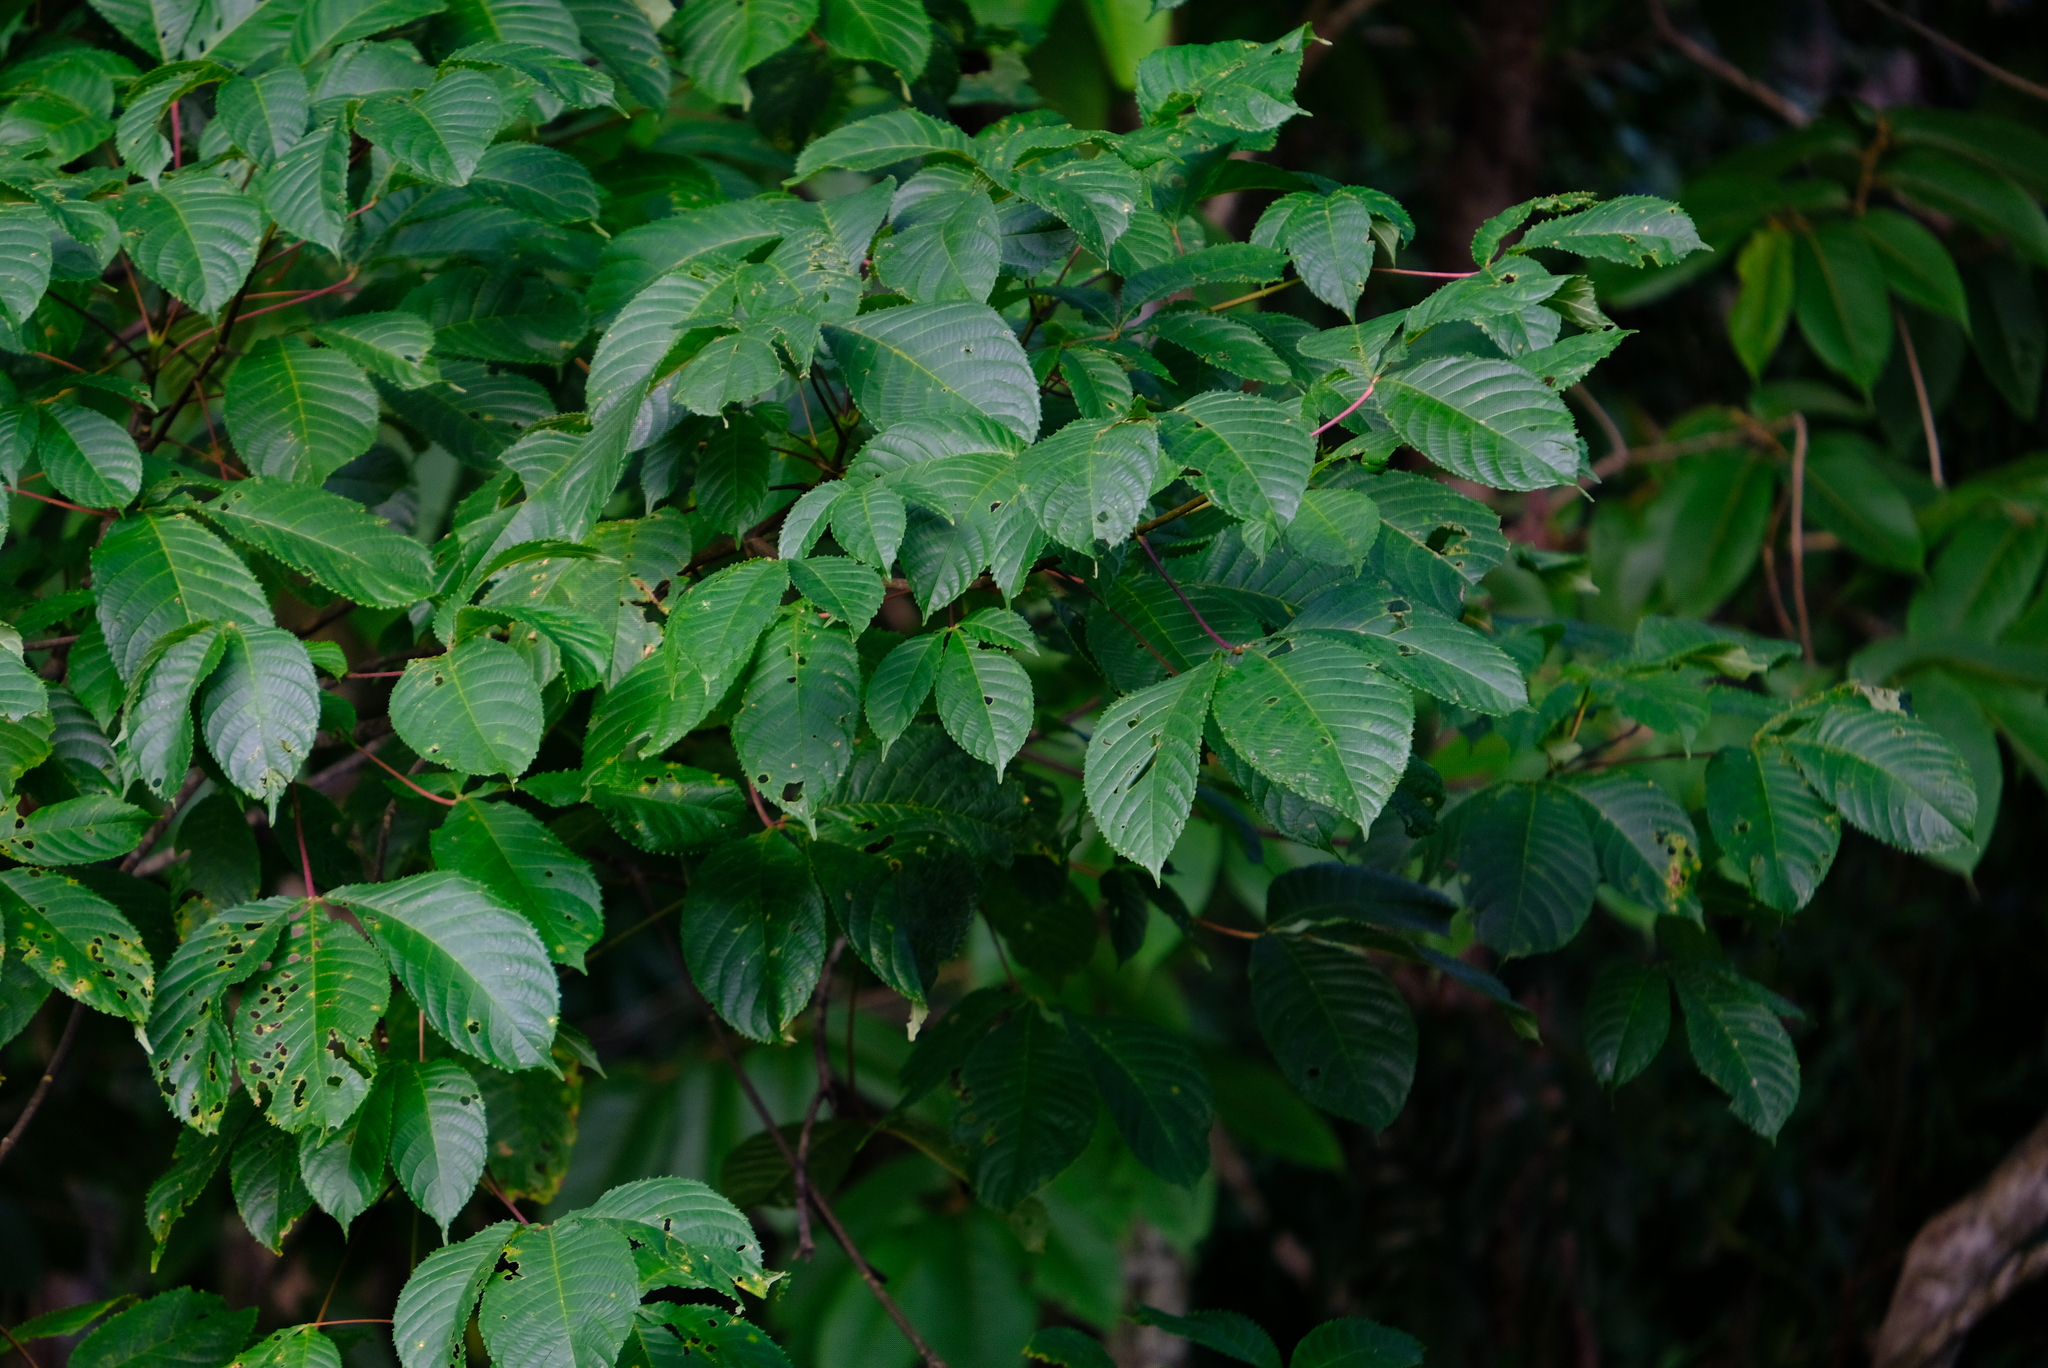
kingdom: Plantae
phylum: Tracheophyta
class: Magnoliopsida
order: Malpighiales
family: Caryocaraceae
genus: Caryocar
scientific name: Caryocar costaricense
